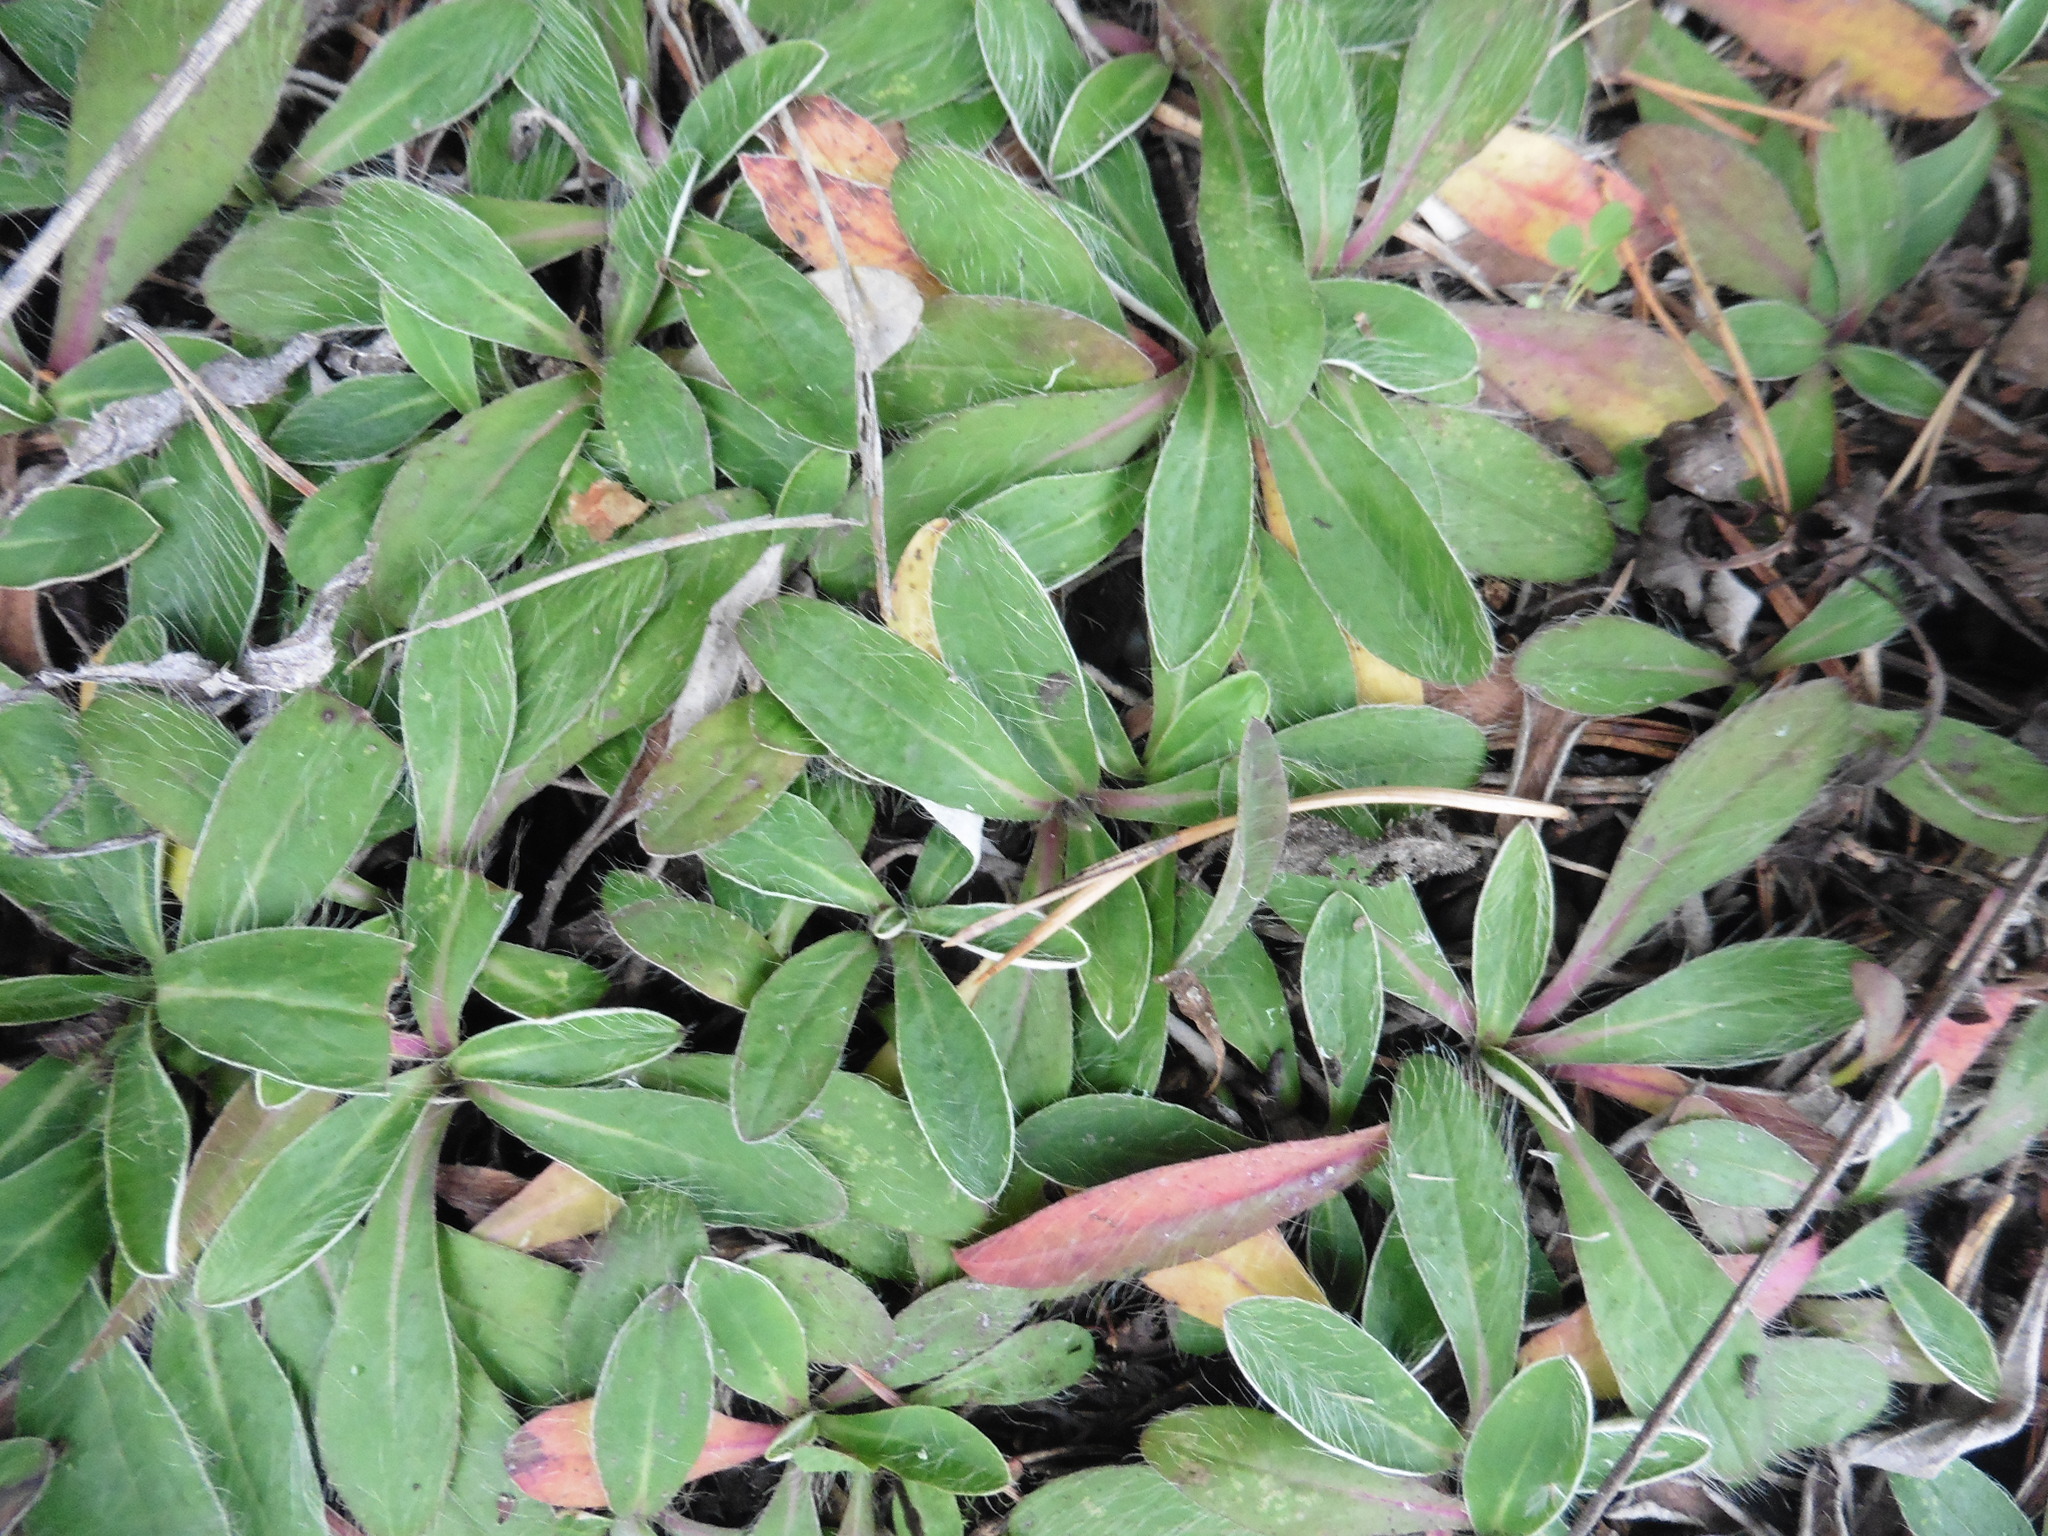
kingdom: Plantae
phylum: Tracheophyta
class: Magnoliopsida
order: Asterales
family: Asteraceae
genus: Pilosella
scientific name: Pilosella officinarum
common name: Mouse-ear hawkweed
